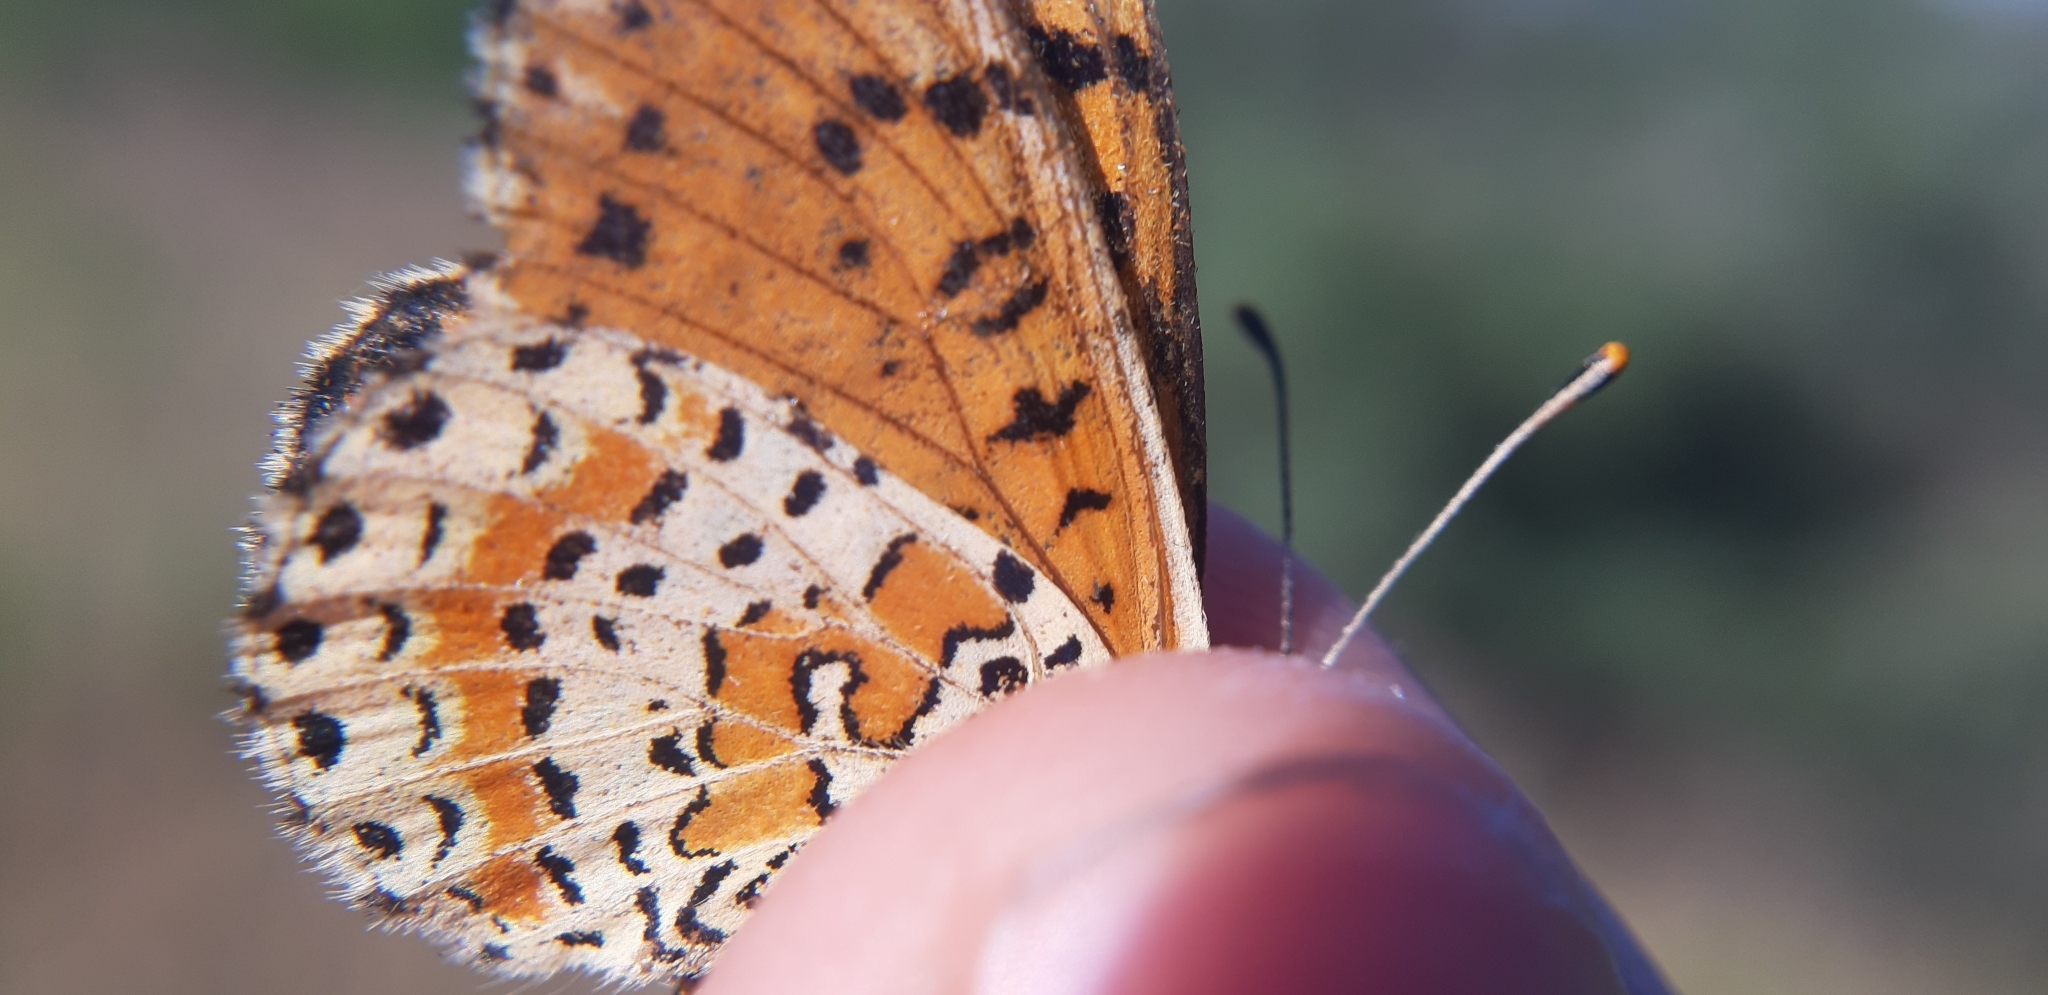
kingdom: Animalia
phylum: Arthropoda
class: Insecta
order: Lepidoptera
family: Nymphalidae
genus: Melitaea
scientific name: Melitaea didyma
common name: Spotted fritillary
